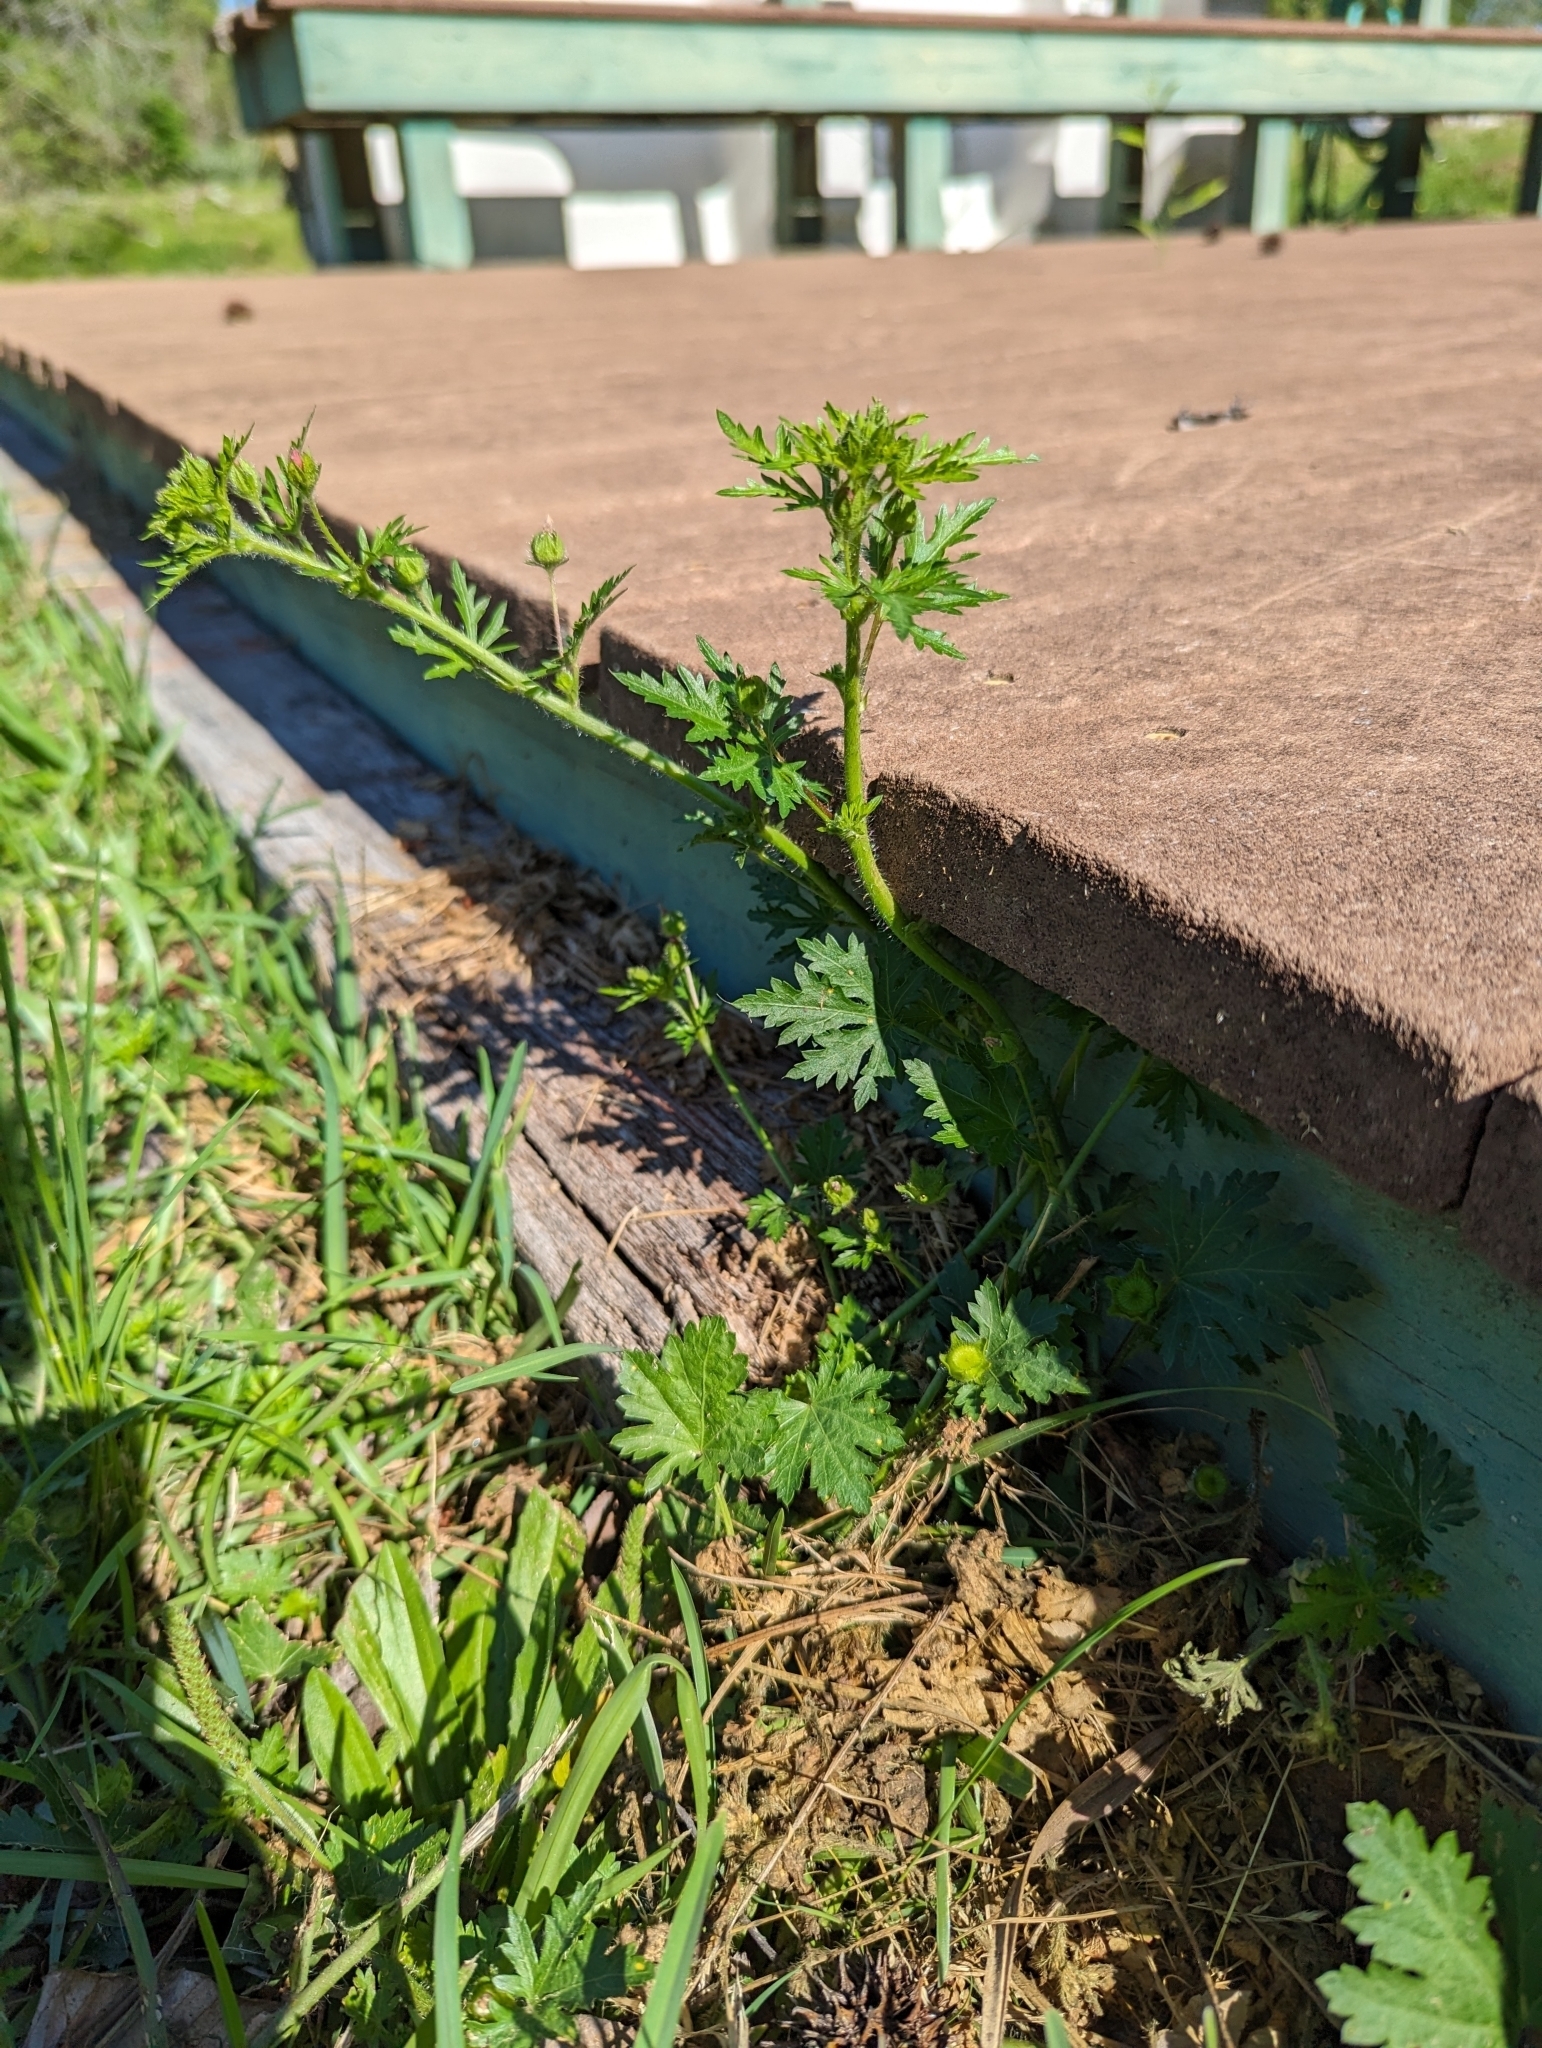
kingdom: Plantae
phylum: Tracheophyta
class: Magnoliopsida
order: Malvales
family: Malvaceae
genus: Modiola
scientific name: Modiola caroliniana
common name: Carolina bristlemallow
